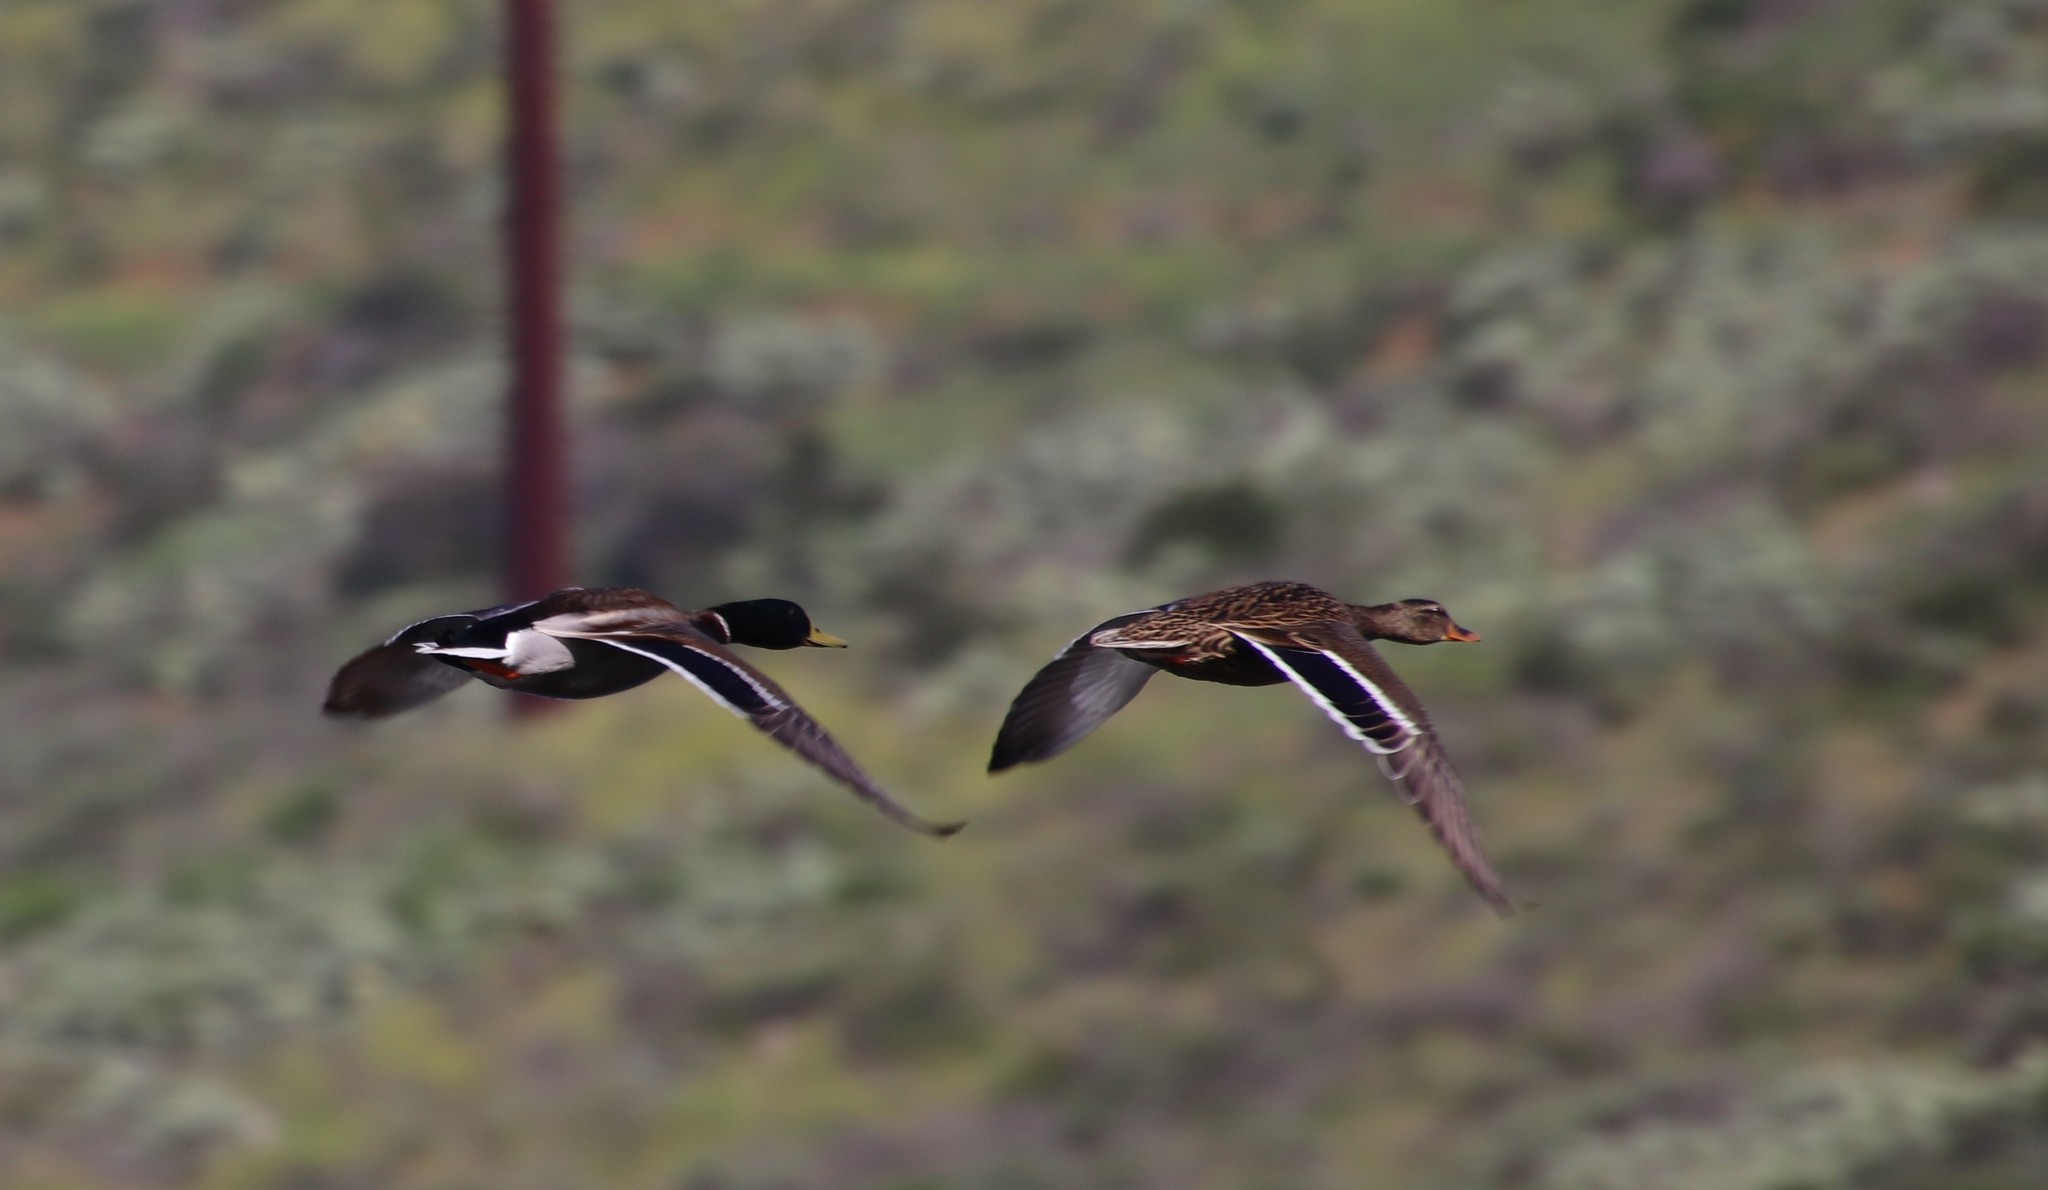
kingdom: Animalia
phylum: Chordata
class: Aves
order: Anseriformes
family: Anatidae
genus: Anas
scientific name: Anas platyrhynchos
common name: Mallard
